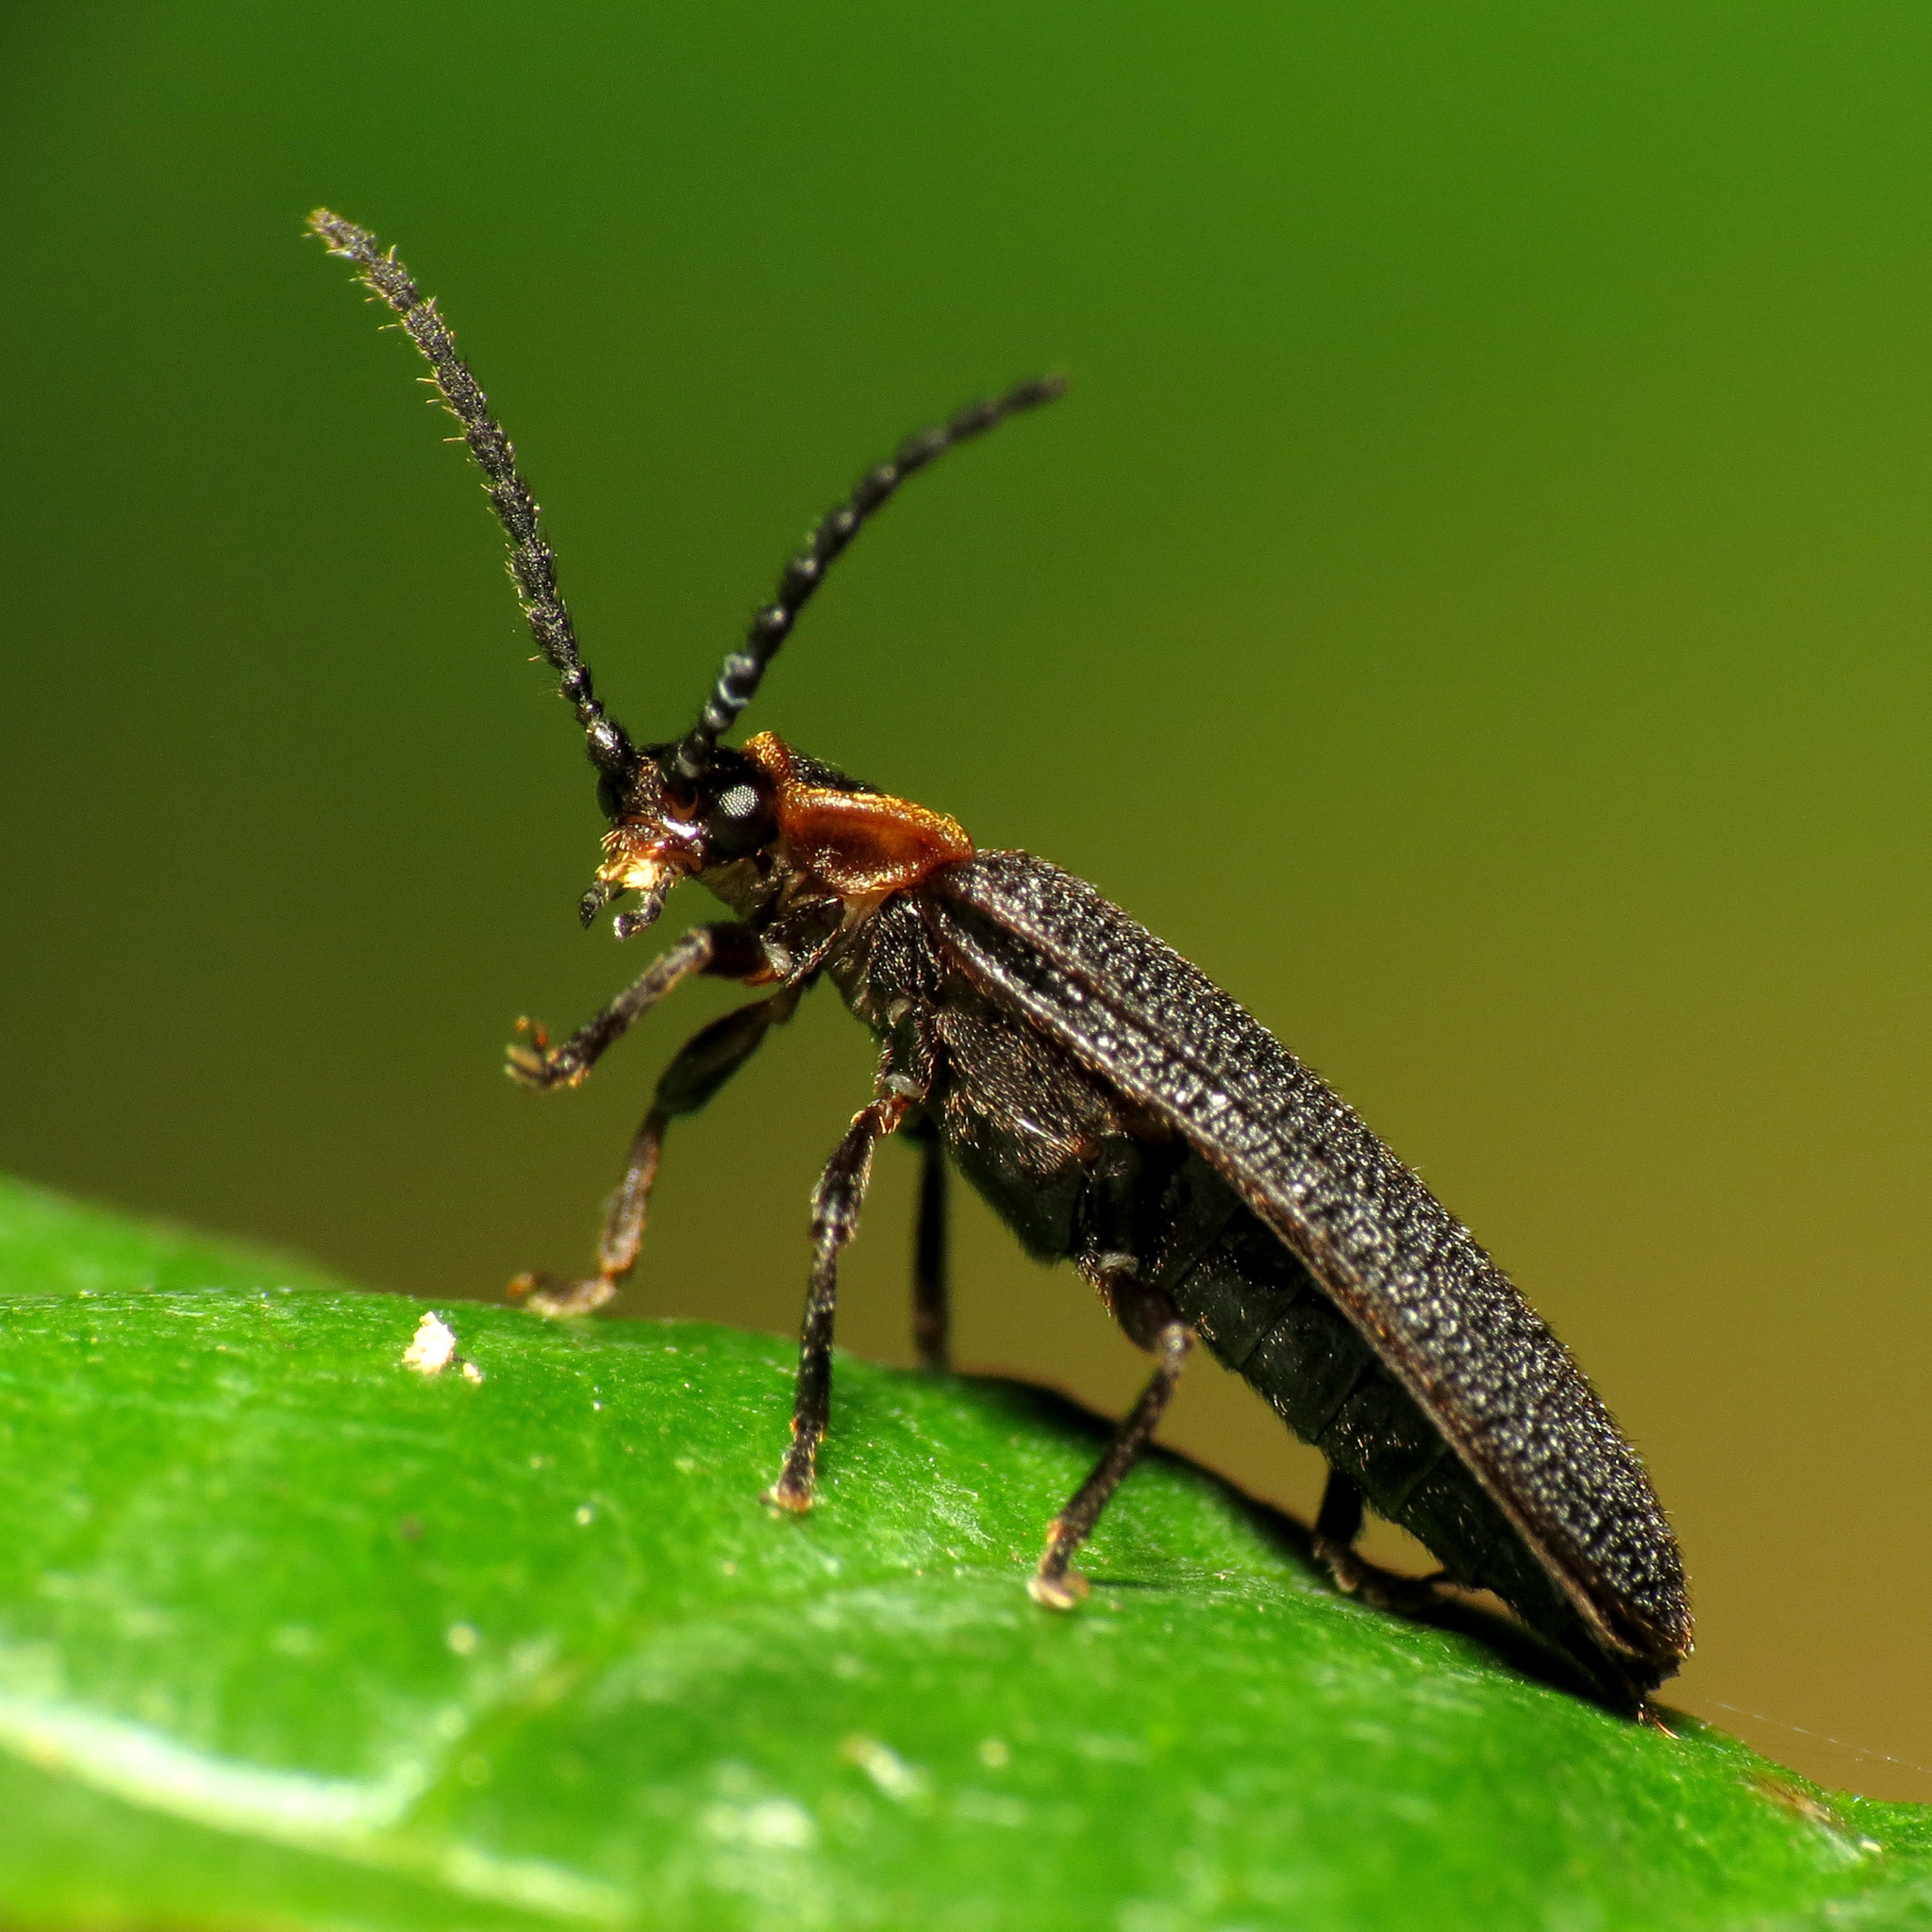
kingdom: Animalia
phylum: Arthropoda
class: Insecta
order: Coleoptera
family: Lycidae
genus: Lopheros
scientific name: Lopheros fraternus
